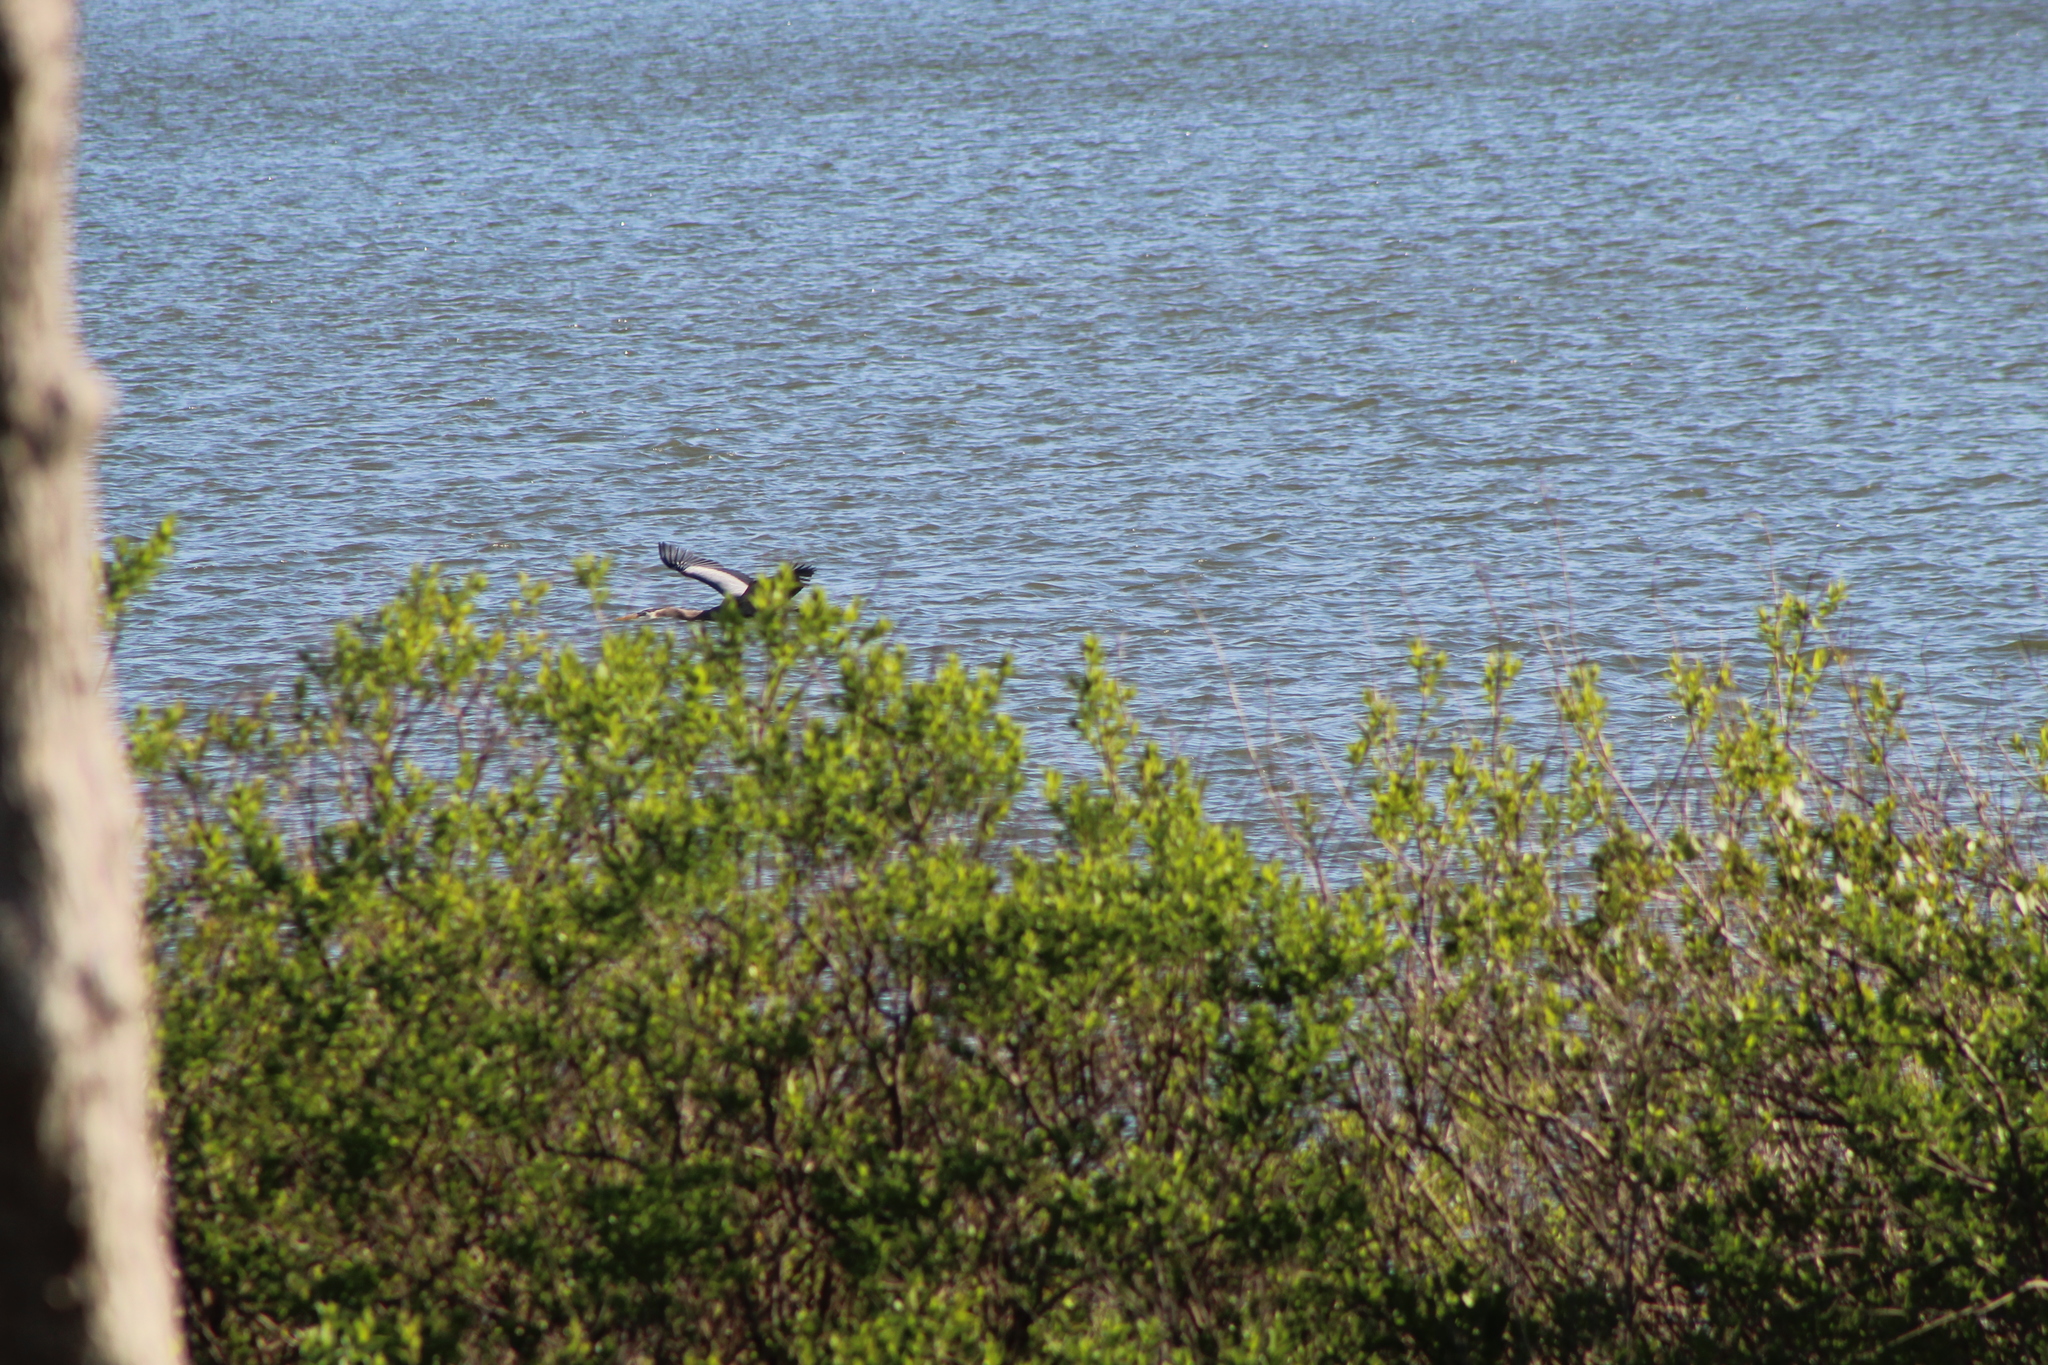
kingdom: Animalia
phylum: Chordata
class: Aves
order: Pelecaniformes
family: Ardeidae
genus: Ardea
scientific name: Ardea herodias
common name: Great blue heron
